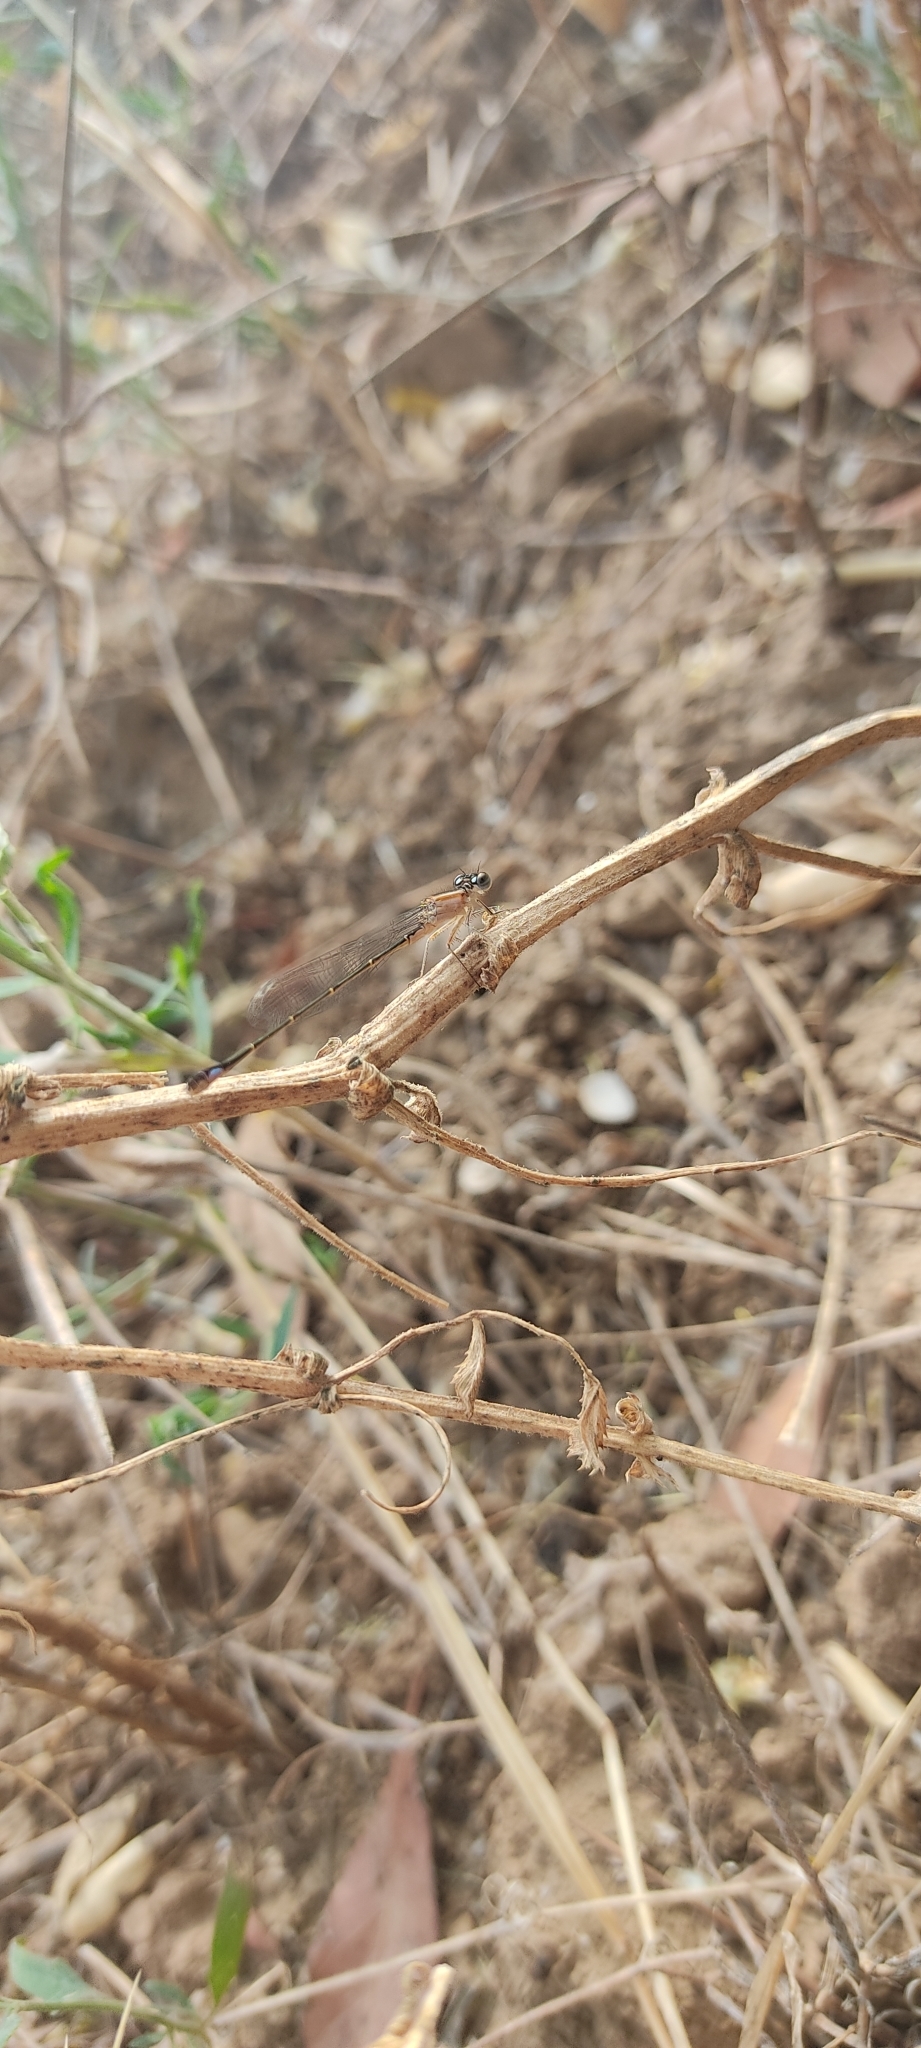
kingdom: Animalia
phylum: Arthropoda
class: Insecta
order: Odonata
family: Coenagrionidae
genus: Ischnura
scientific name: Ischnura elegans
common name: Blue-tailed damselfly
